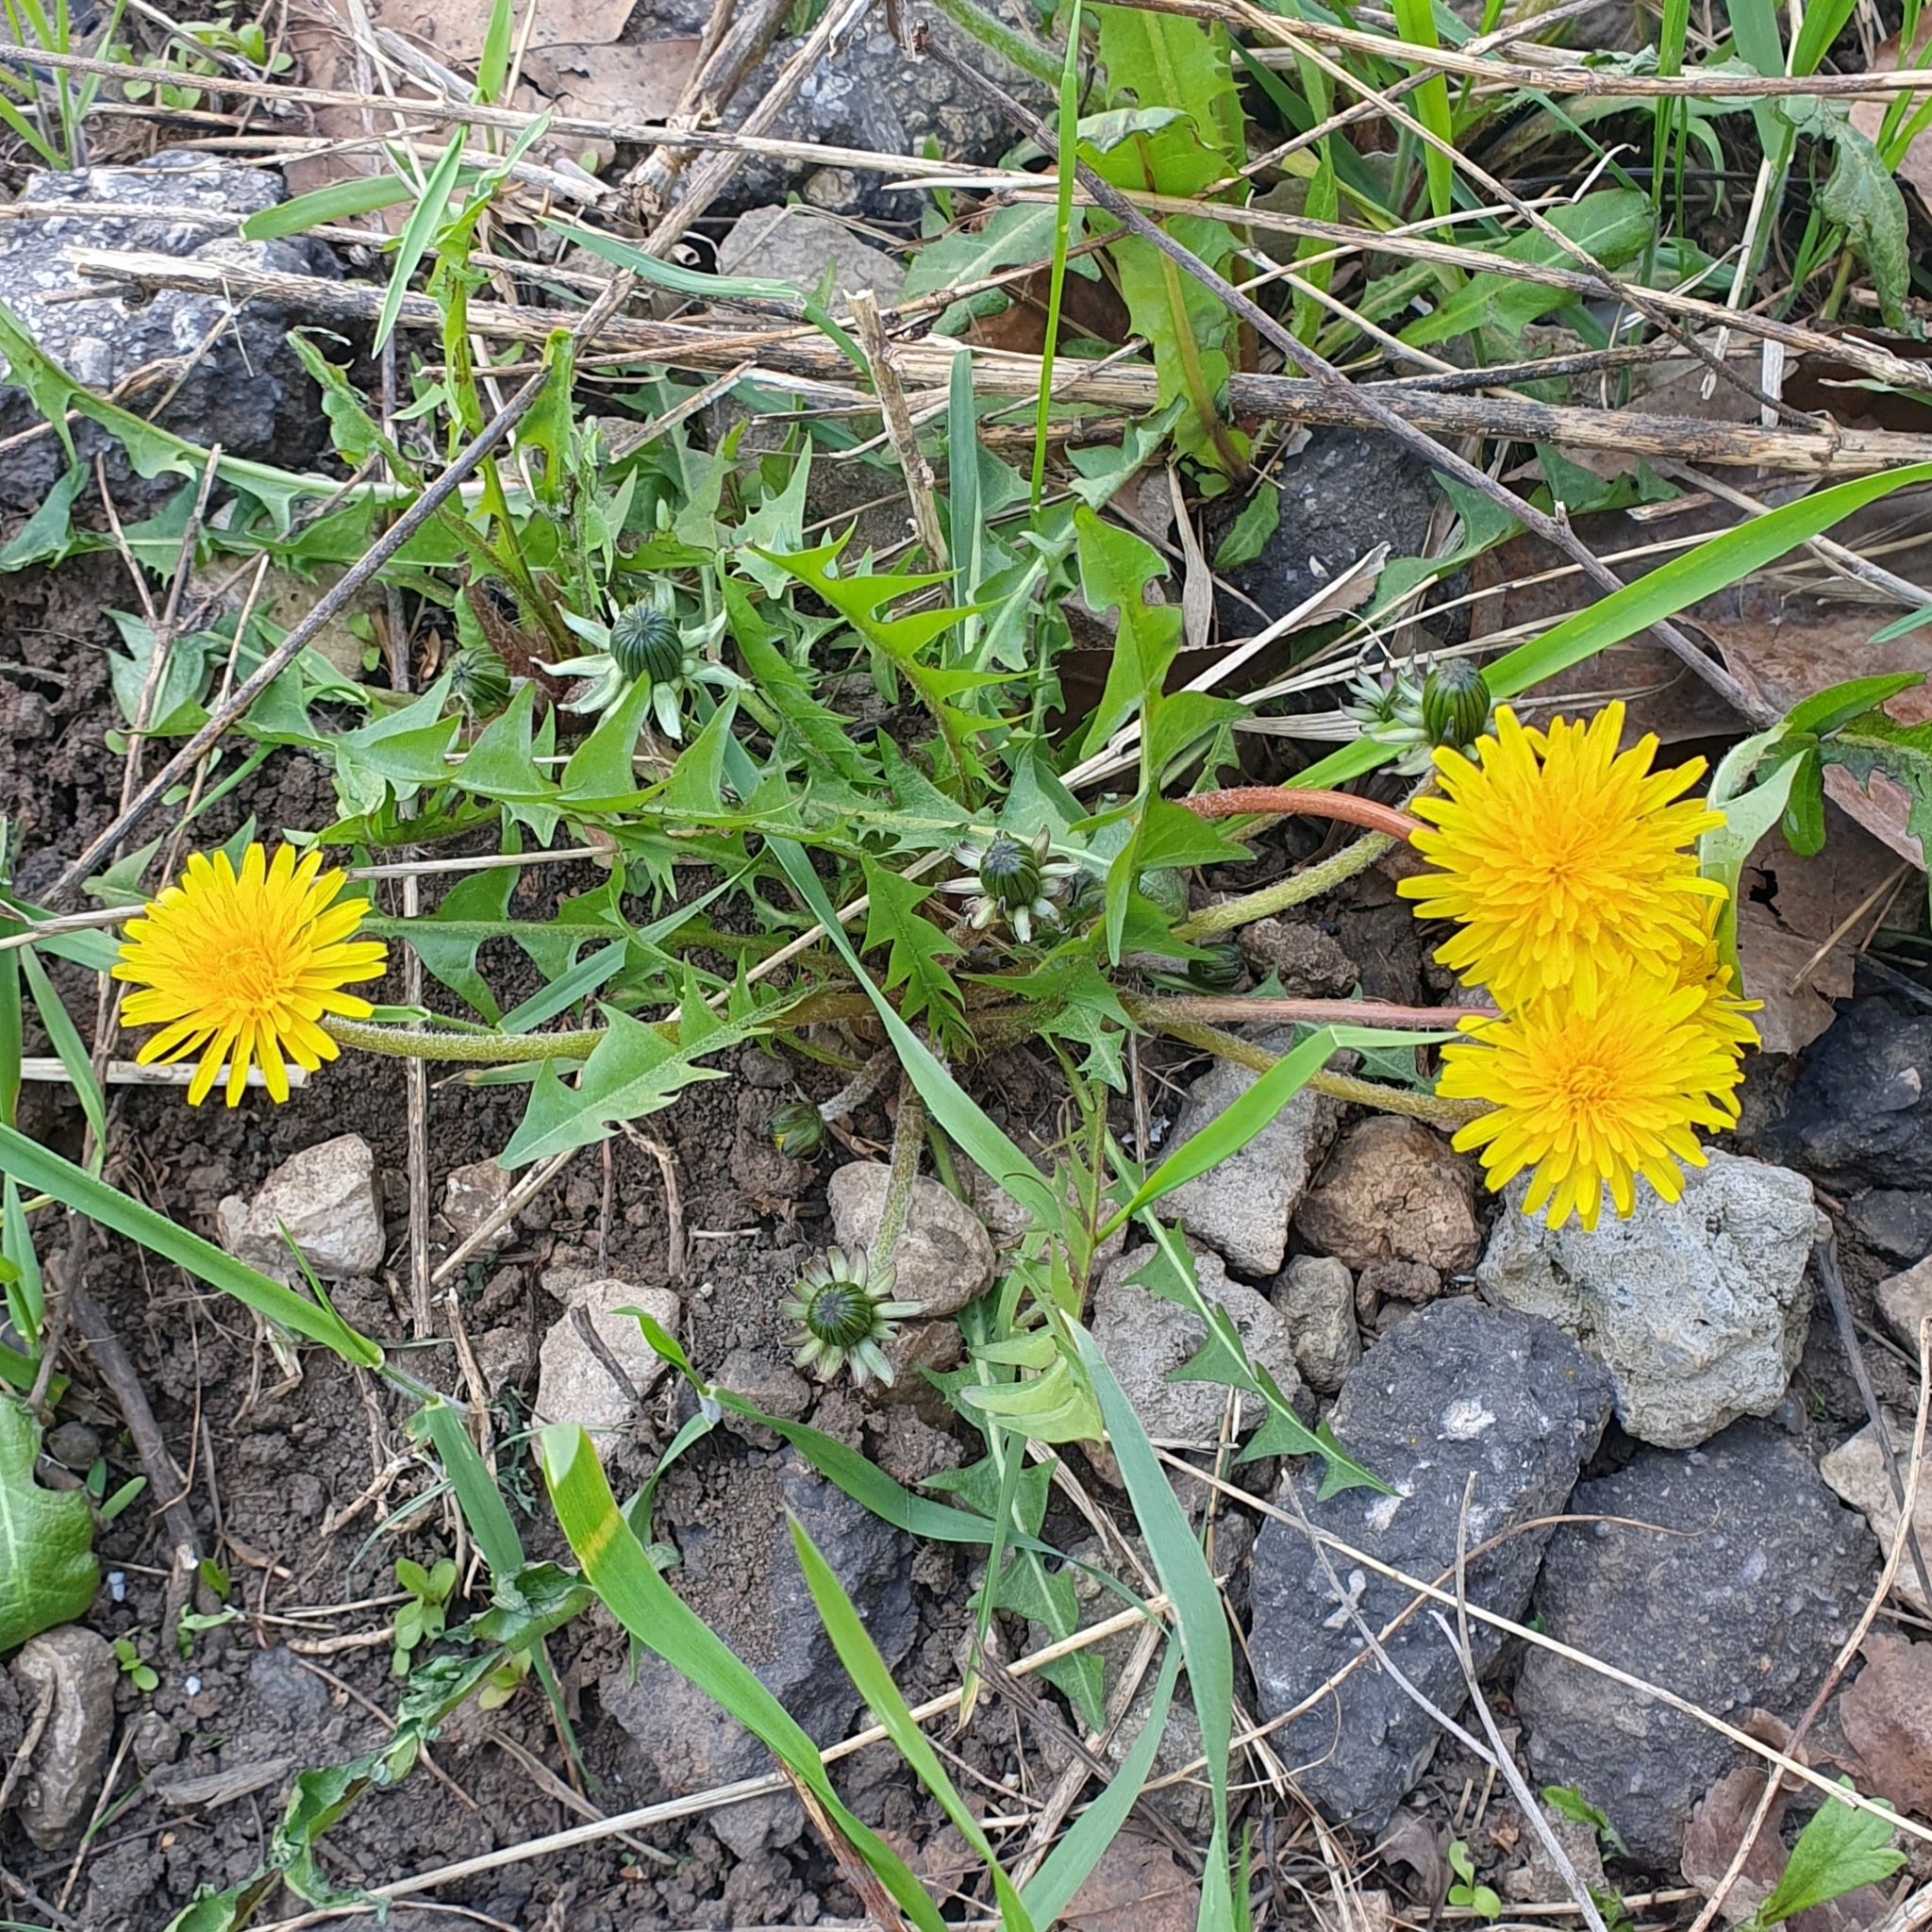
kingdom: Plantae
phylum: Tracheophyta
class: Magnoliopsida
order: Asterales
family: Asteraceae
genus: Taraxacum
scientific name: Taraxacum officinale
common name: Common dandelion
